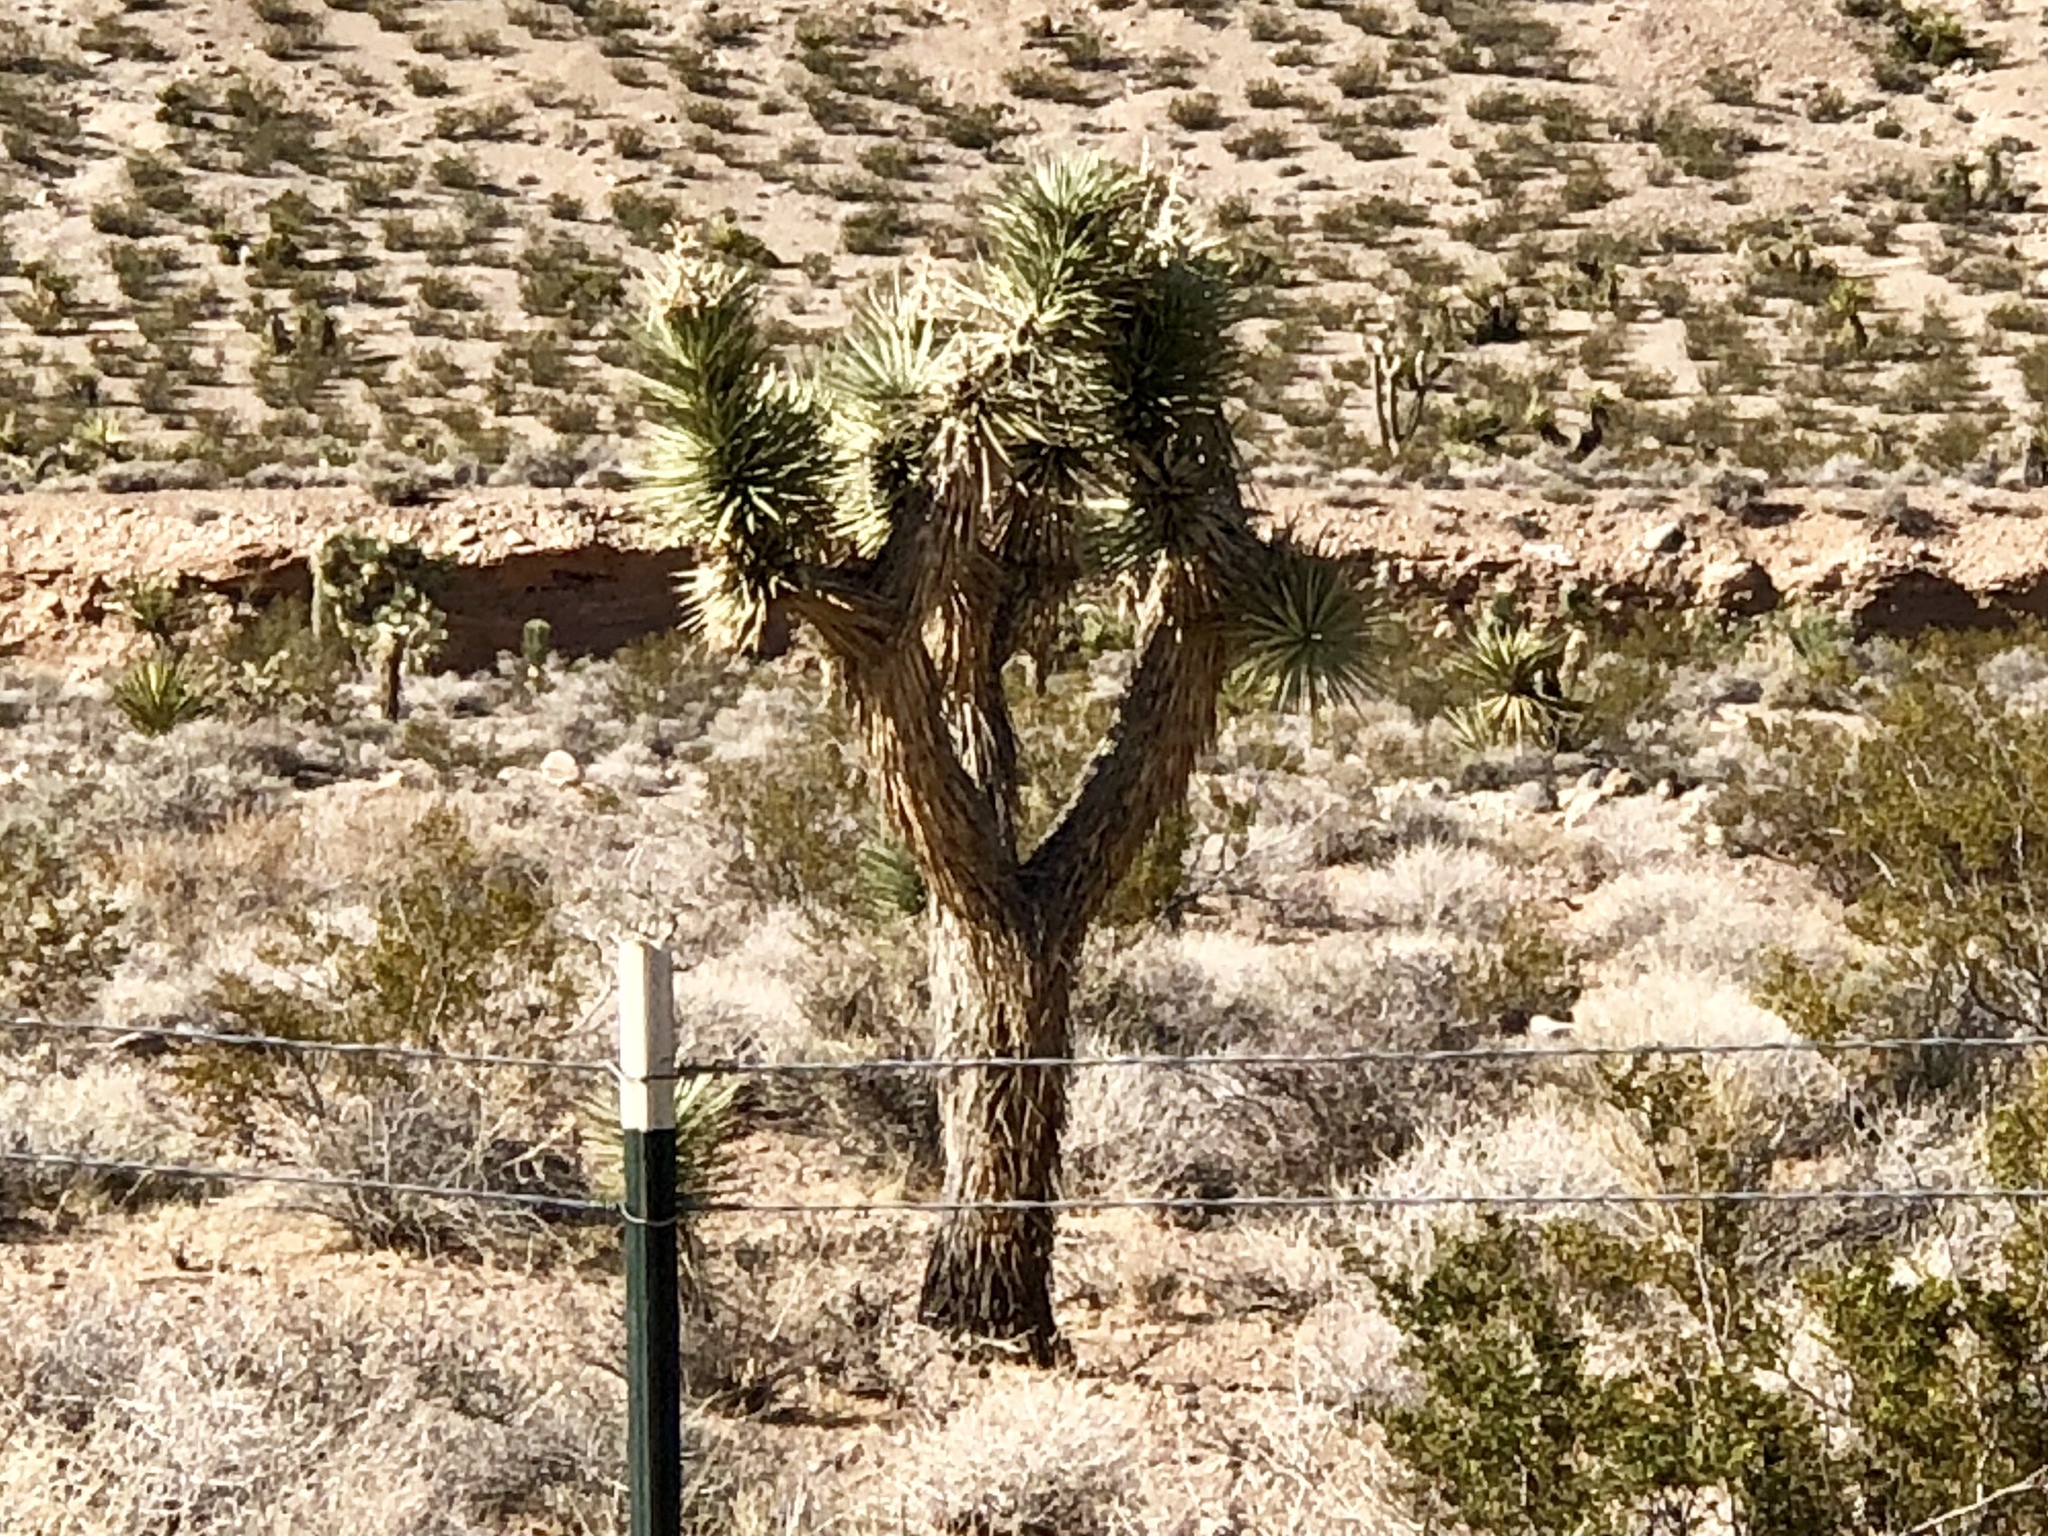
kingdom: Plantae
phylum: Tracheophyta
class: Liliopsida
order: Asparagales
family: Asparagaceae
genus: Yucca
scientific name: Yucca brevifolia
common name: Joshua tree
